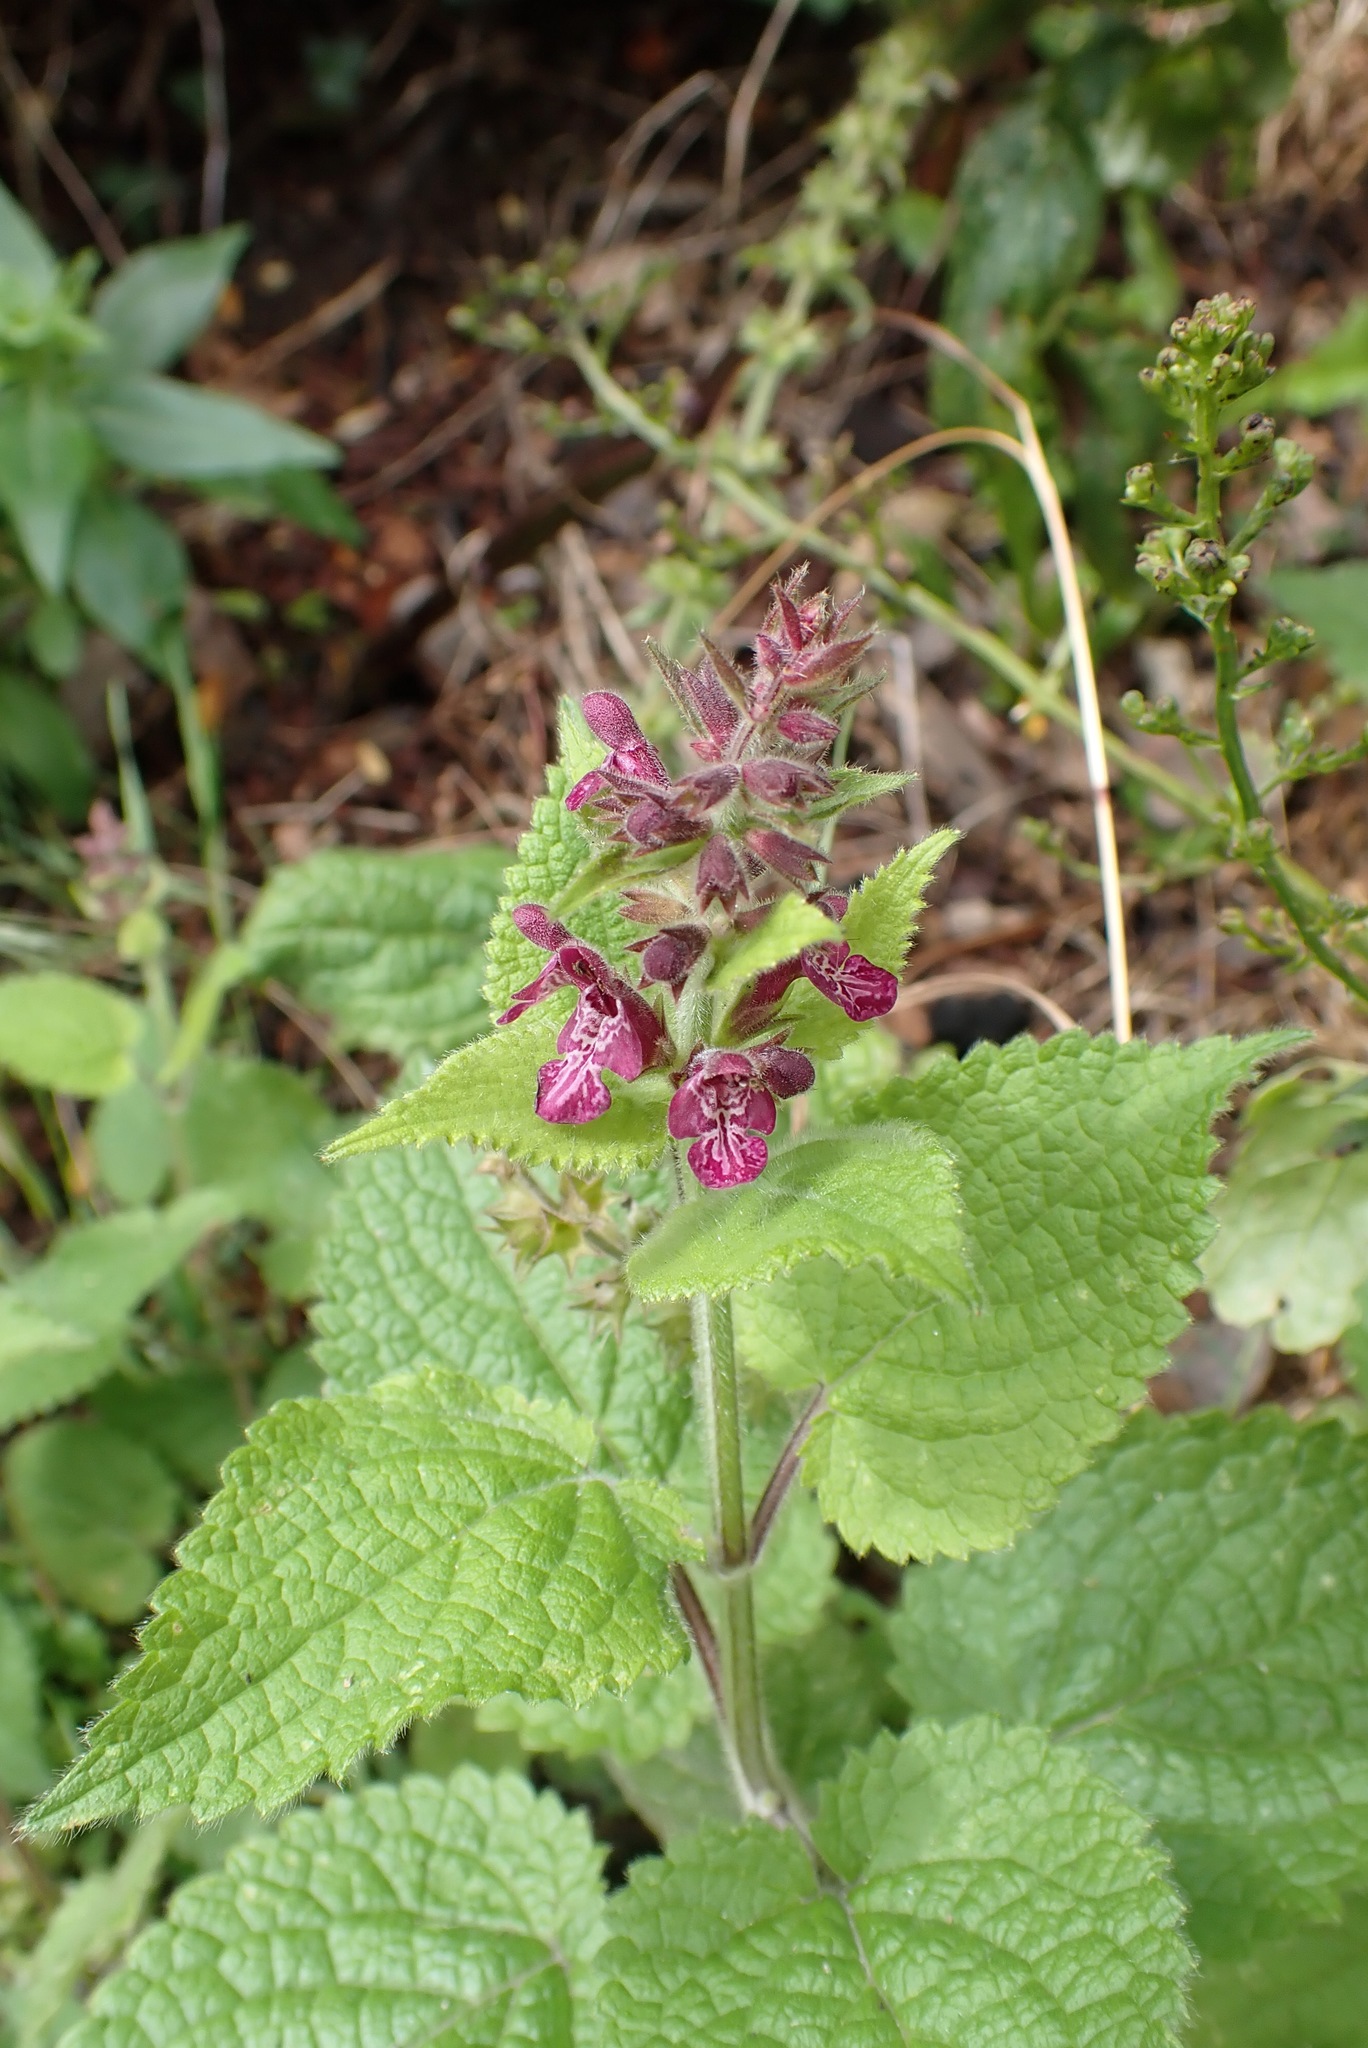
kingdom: Plantae
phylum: Tracheophyta
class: Magnoliopsida
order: Lamiales
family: Lamiaceae
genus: Stachys
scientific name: Stachys sylvatica
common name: Hedge woundwort
